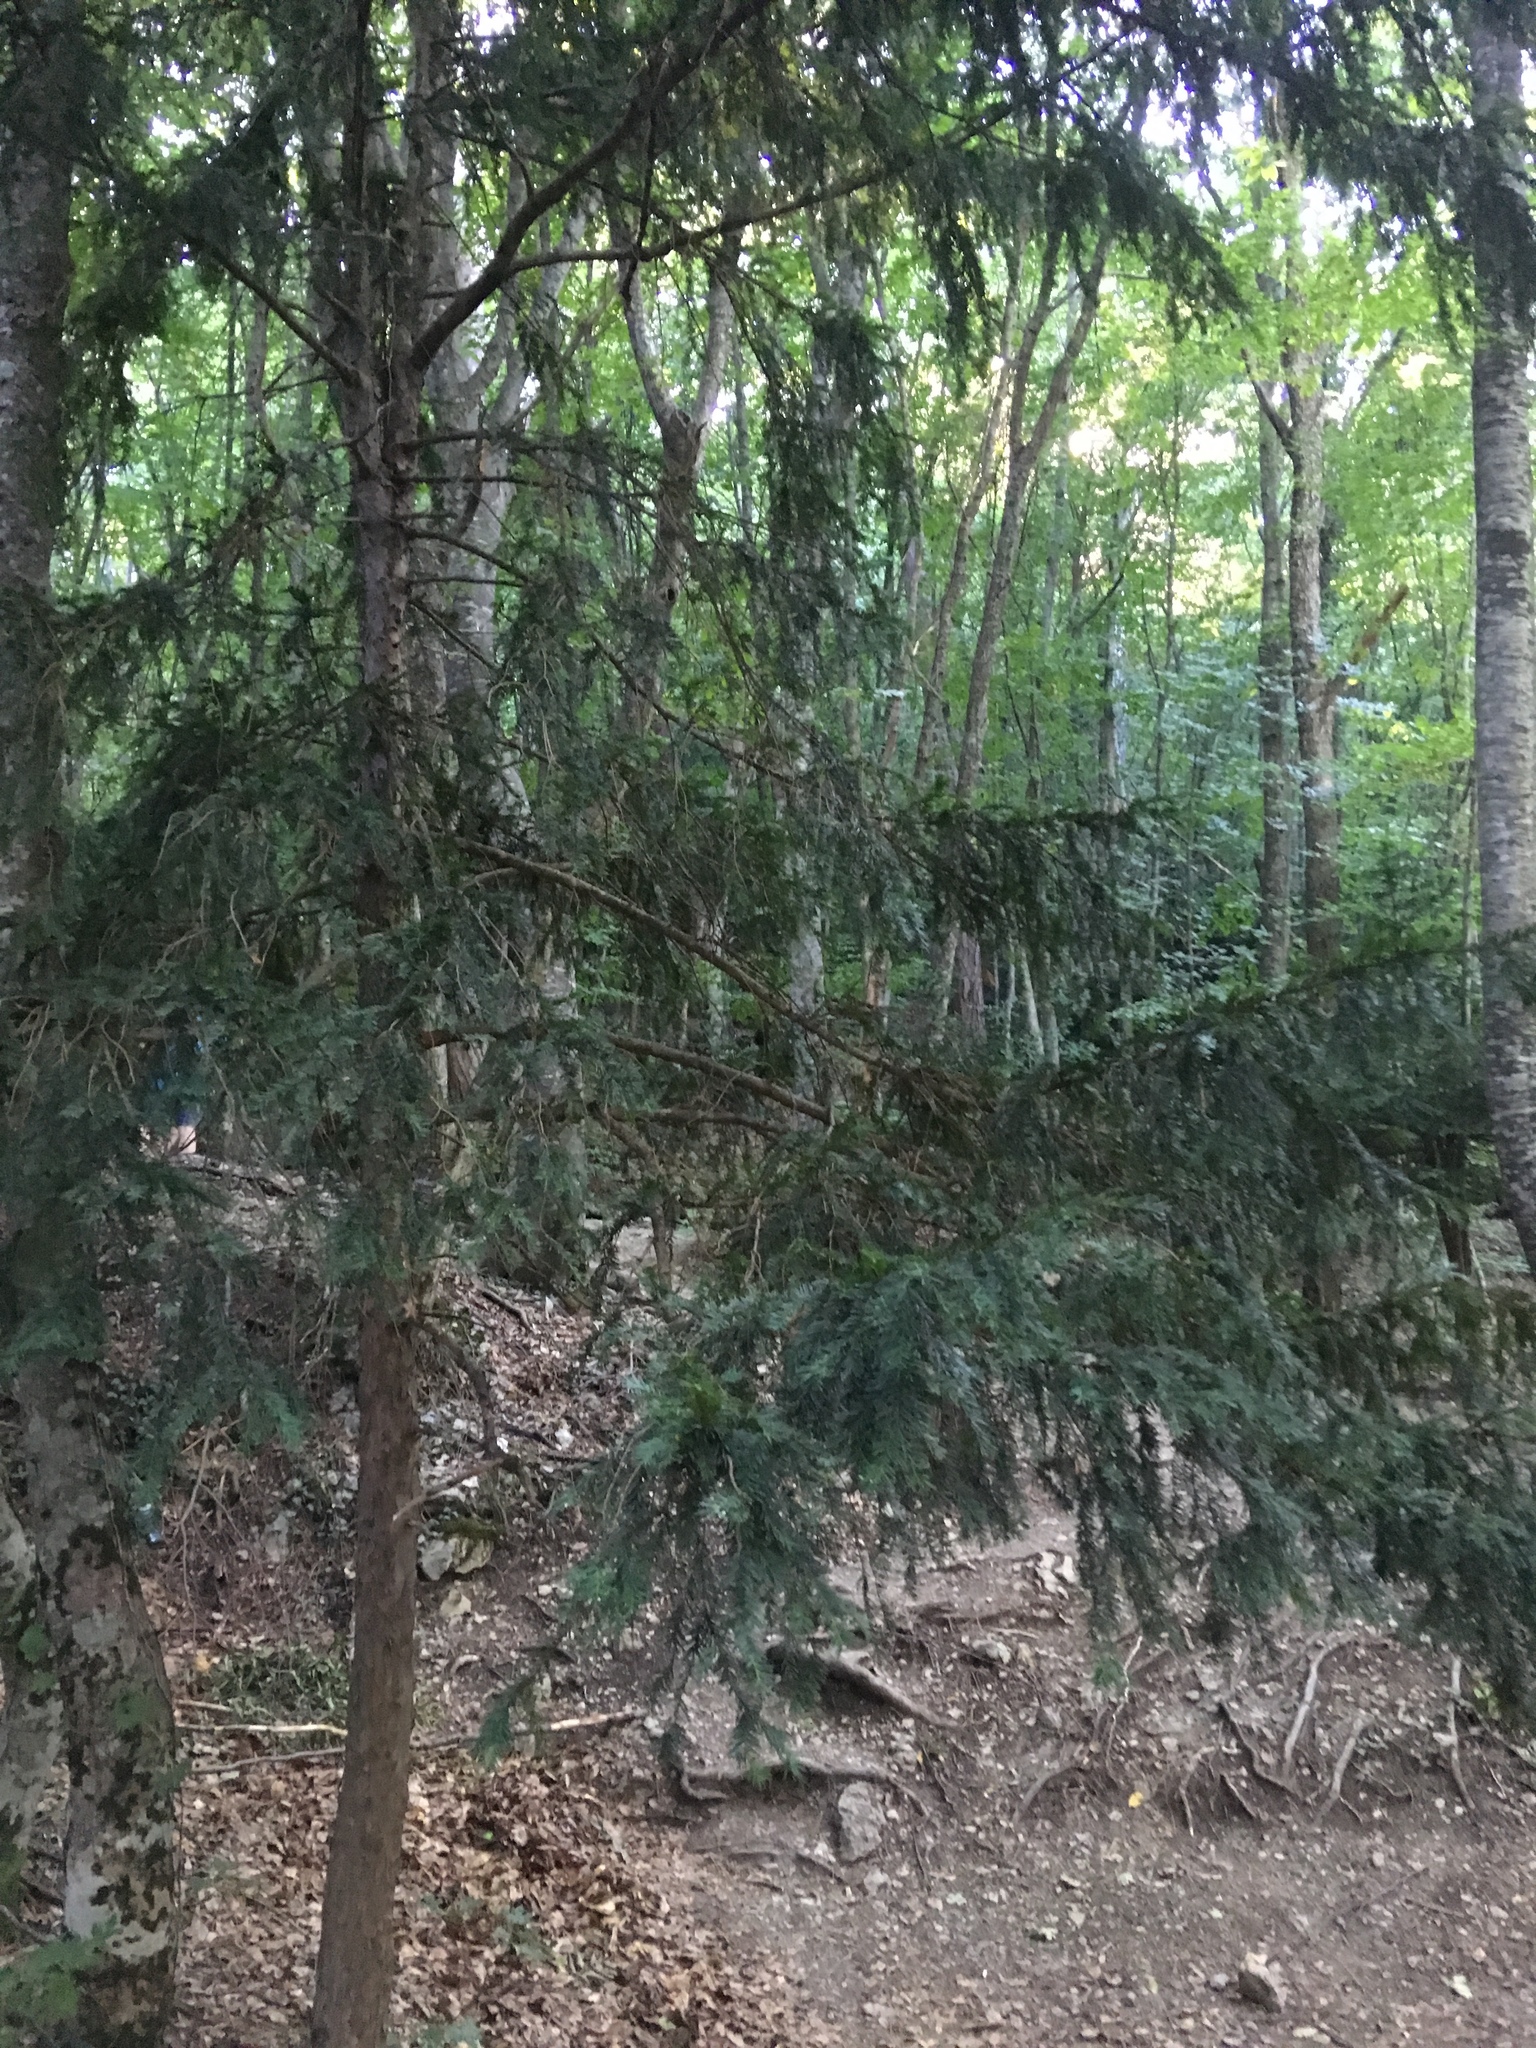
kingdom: Plantae
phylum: Tracheophyta
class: Pinopsida
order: Pinales
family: Taxaceae
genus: Taxus
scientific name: Taxus baccata
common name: Yew
